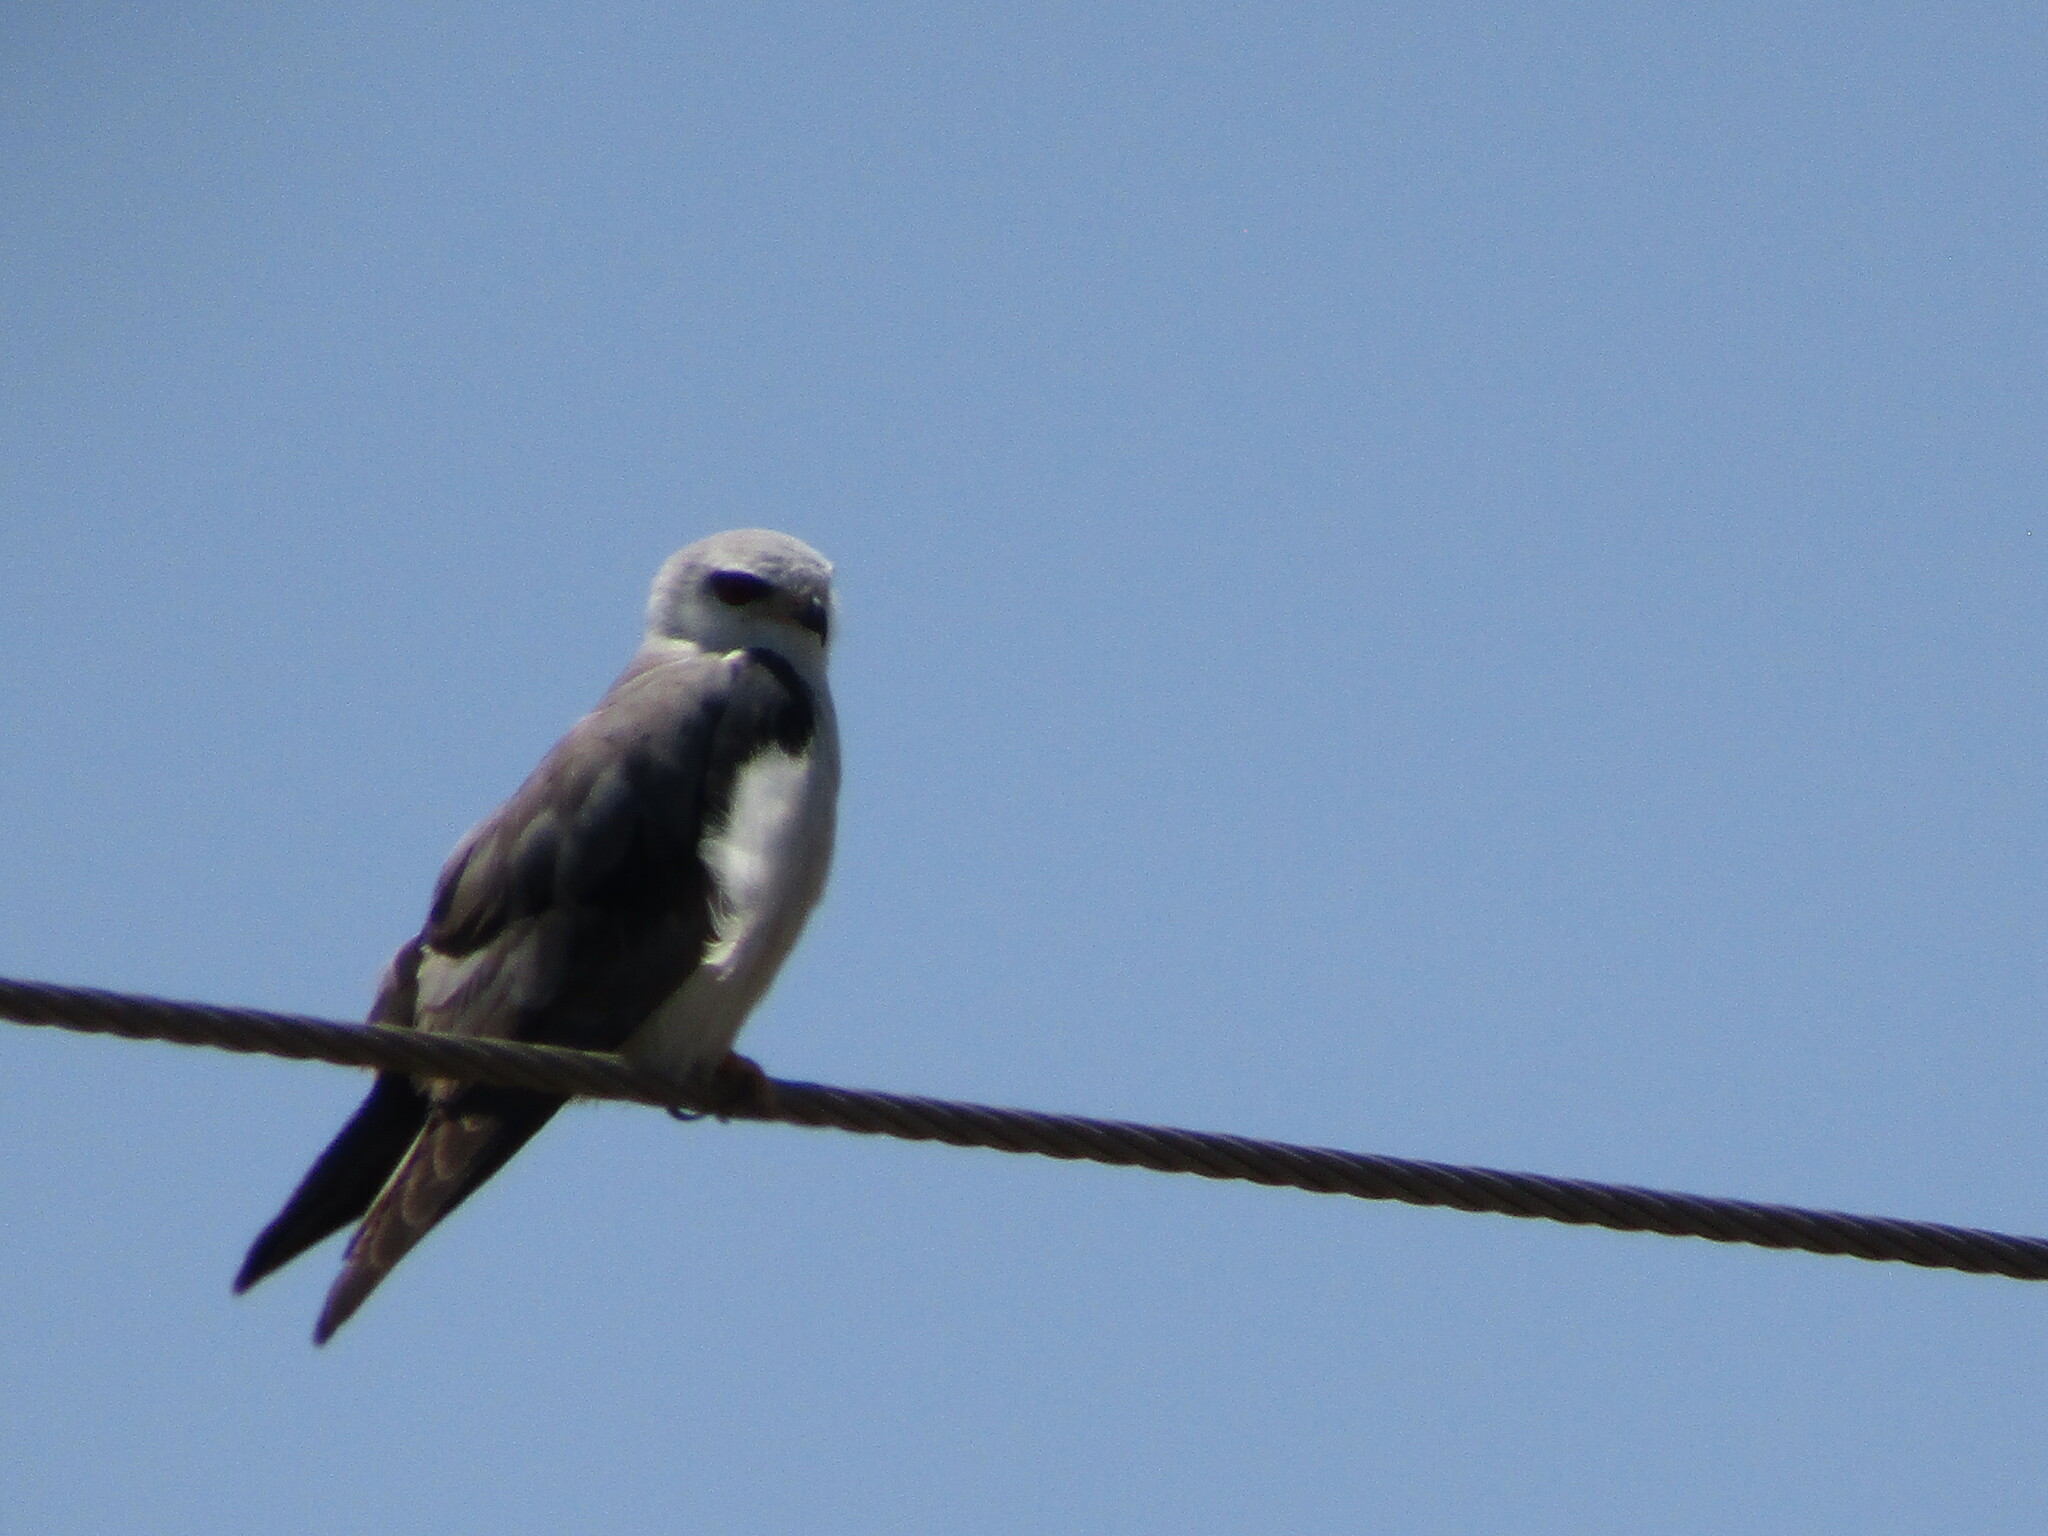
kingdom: Animalia
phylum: Chordata
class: Aves
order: Accipitriformes
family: Accipitridae
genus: Elanus
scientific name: Elanus caeruleus
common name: Black-winged kite
